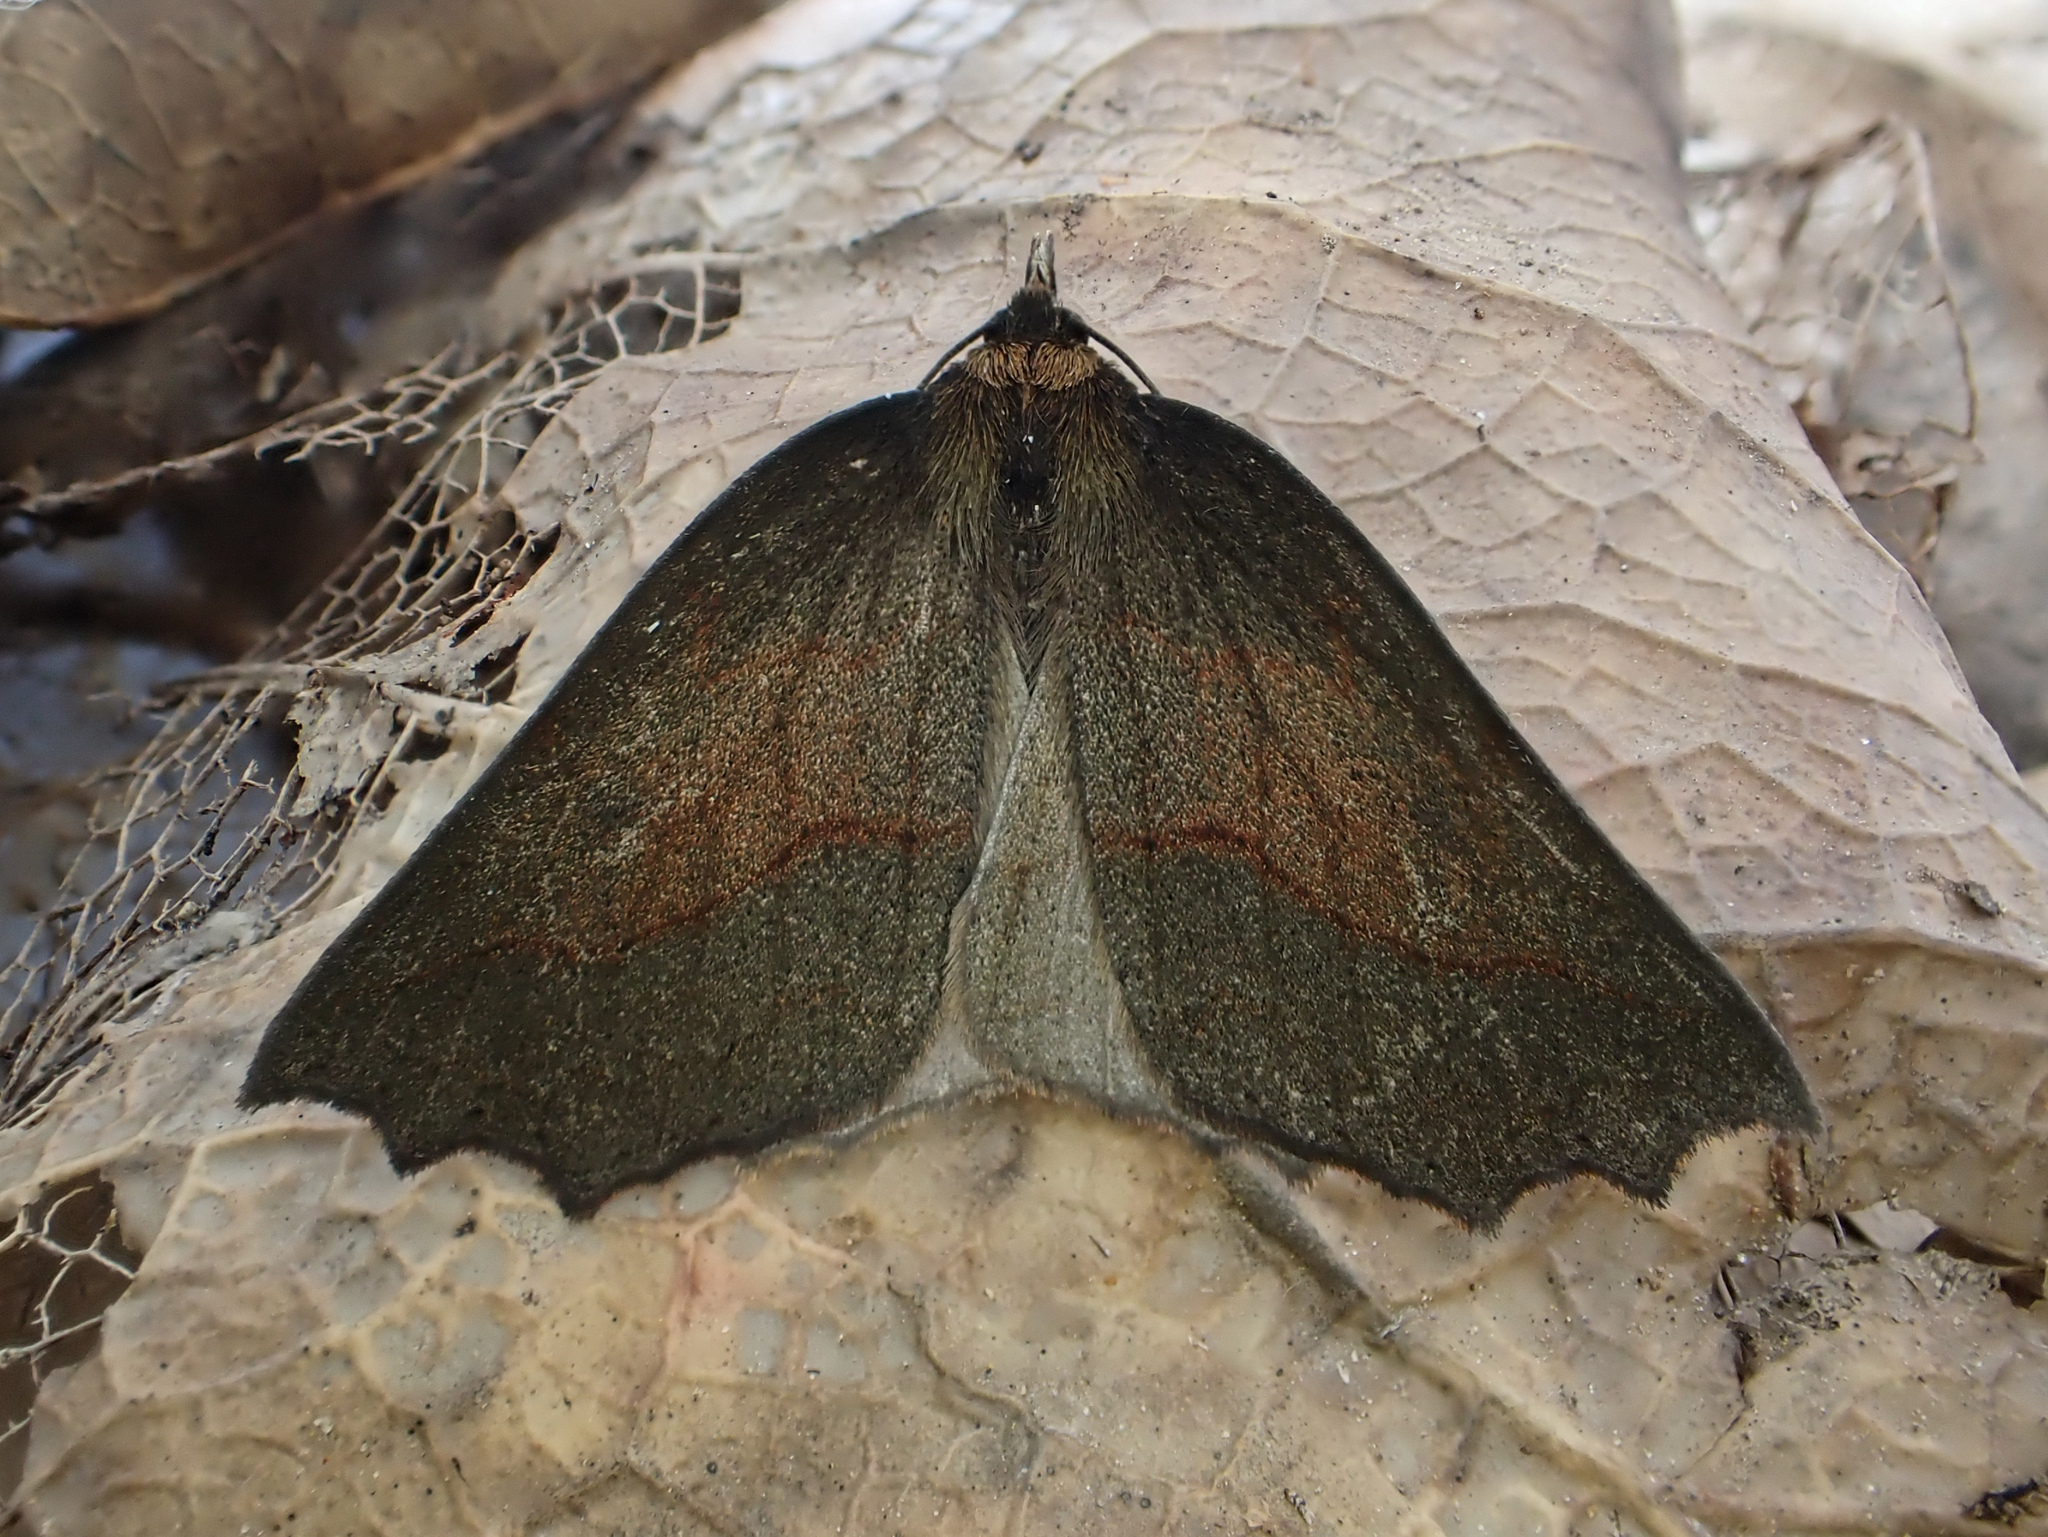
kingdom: Animalia
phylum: Arthropoda
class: Insecta
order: Lepidoptera
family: Geometridae
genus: Ischalis
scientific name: Ischalis variabilis
